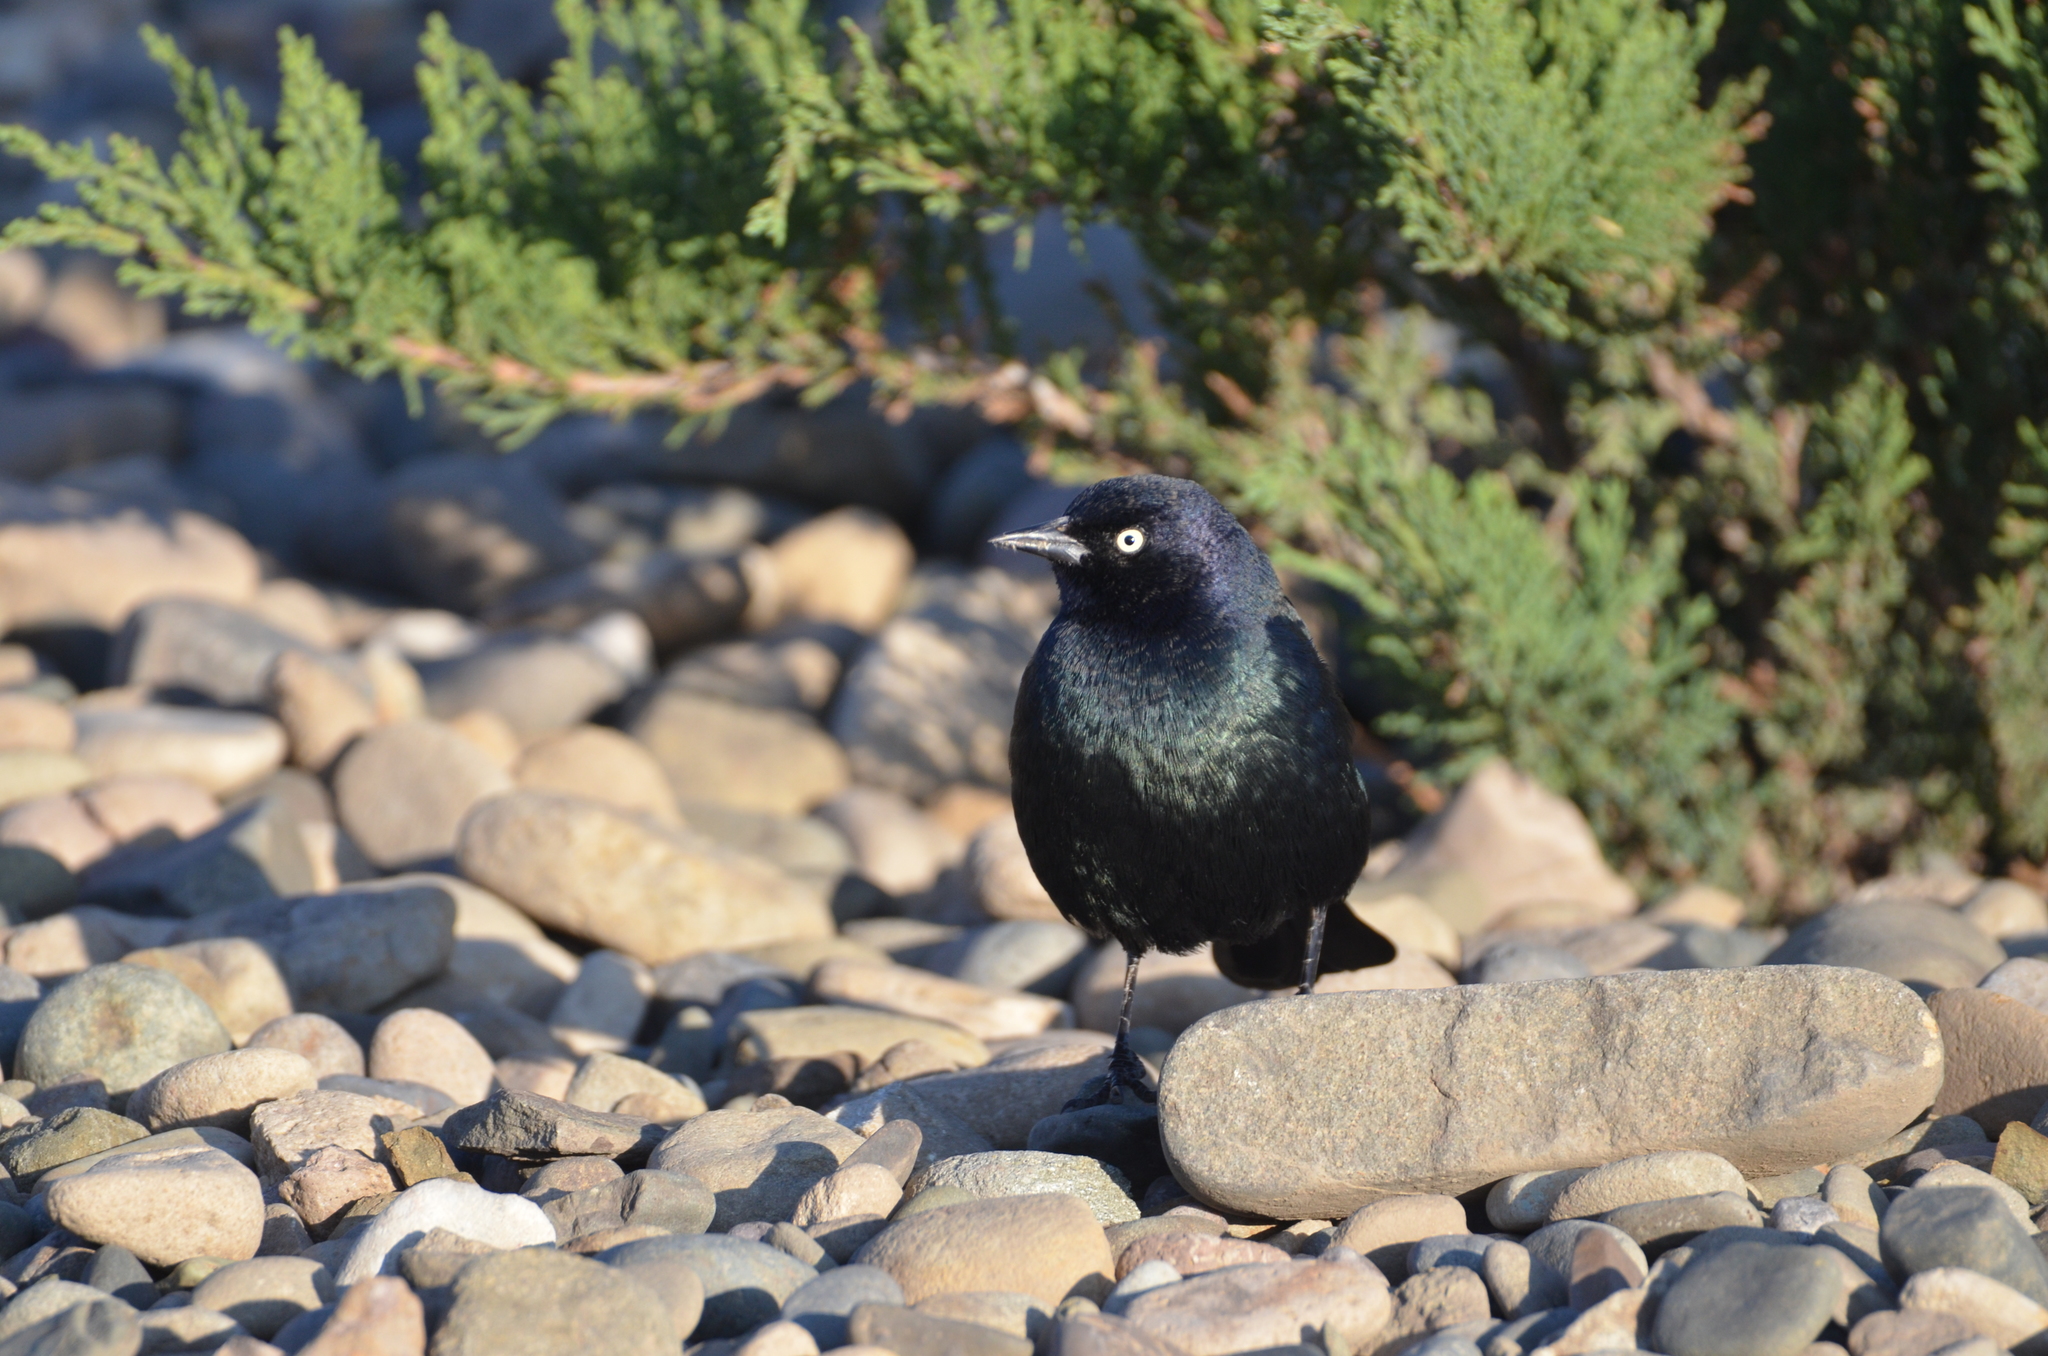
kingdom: Animalia
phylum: Chordata
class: Aves
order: Passeriformes
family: Icteridae
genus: Euphagus
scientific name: Euphagus cyanocephalus
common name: Brewer's blackbird
